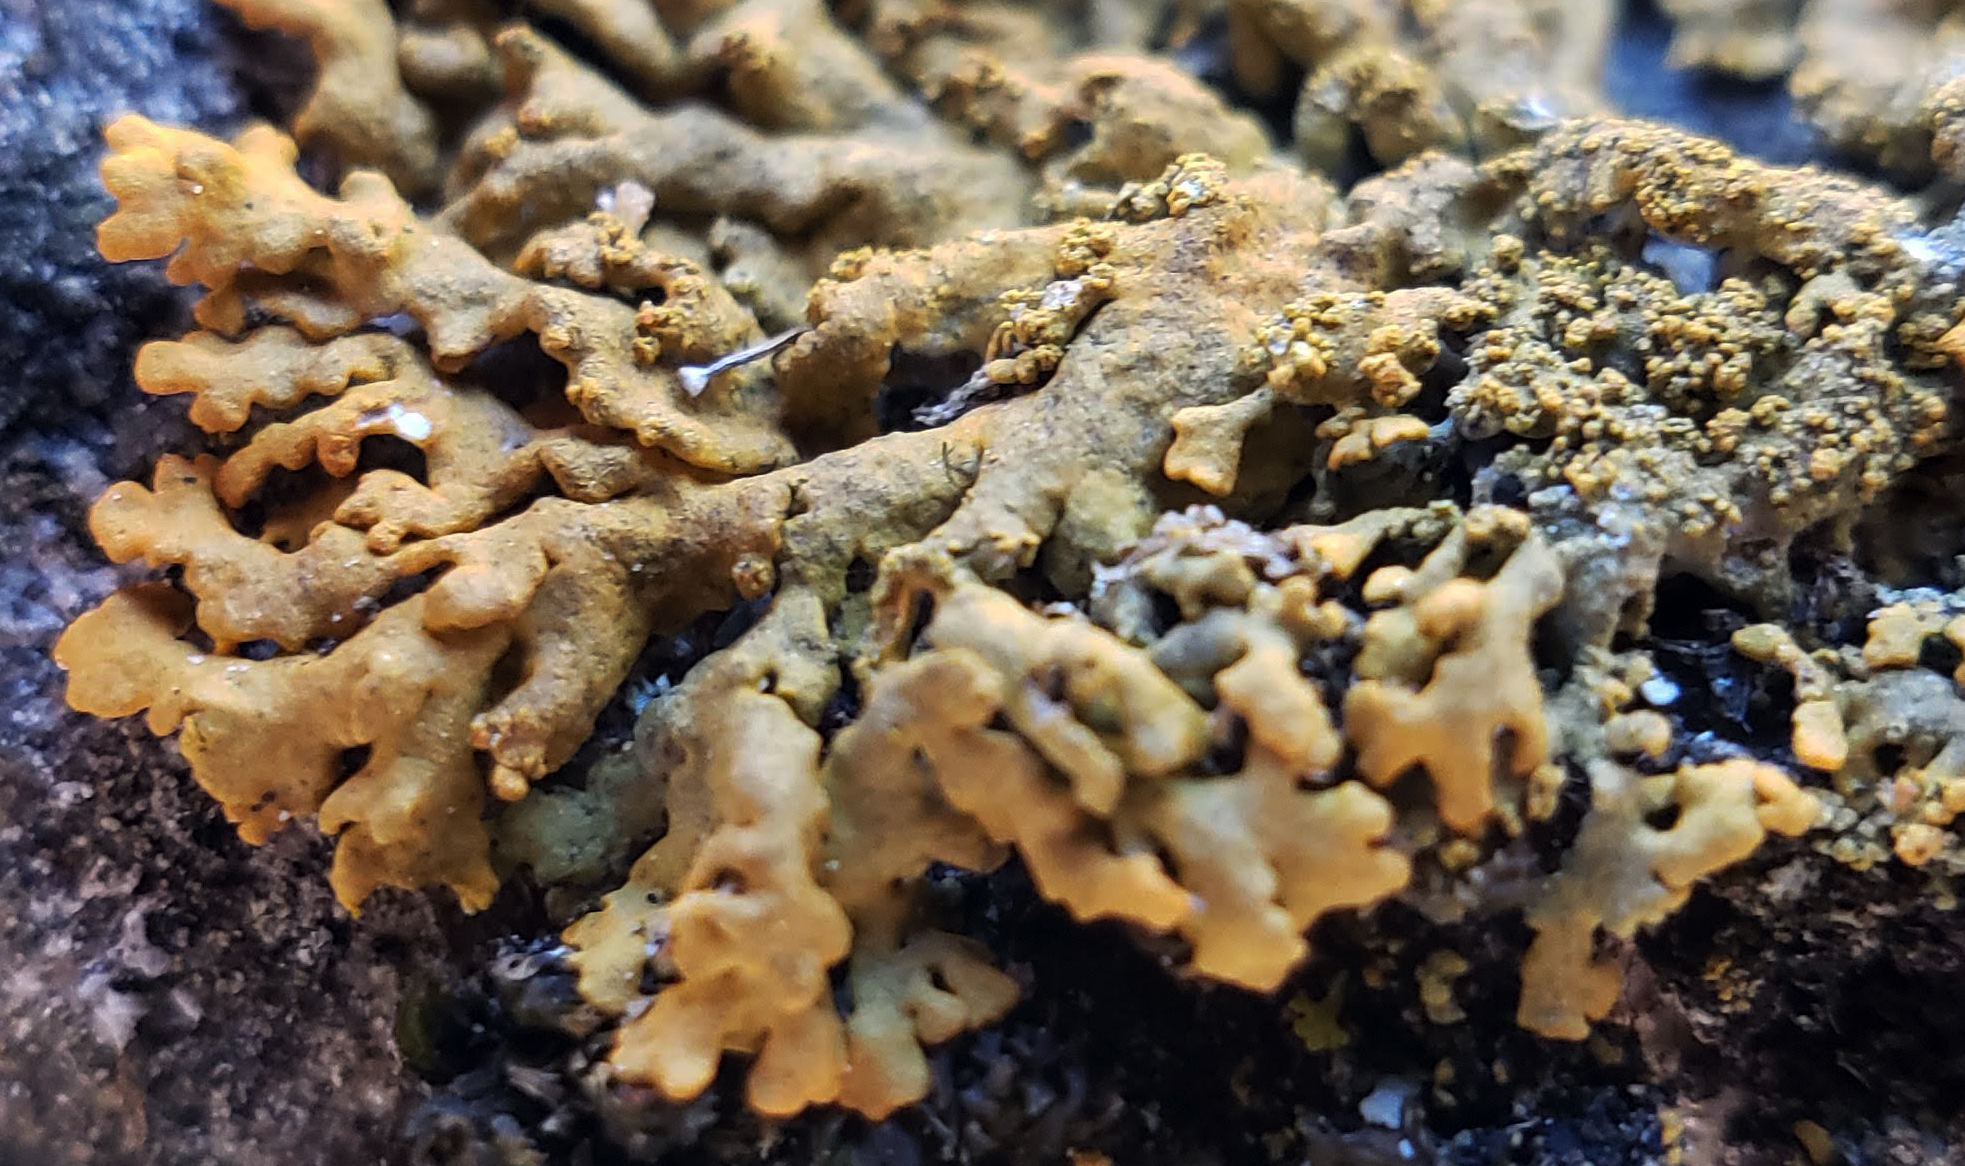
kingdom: Fungi
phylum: Ascomycota
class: Lecanoromycetes
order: Teloschistales
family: Teloschistaceae
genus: Rusavskia
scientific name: Rusavskia sorediata
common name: Sugared sunburst lichen
